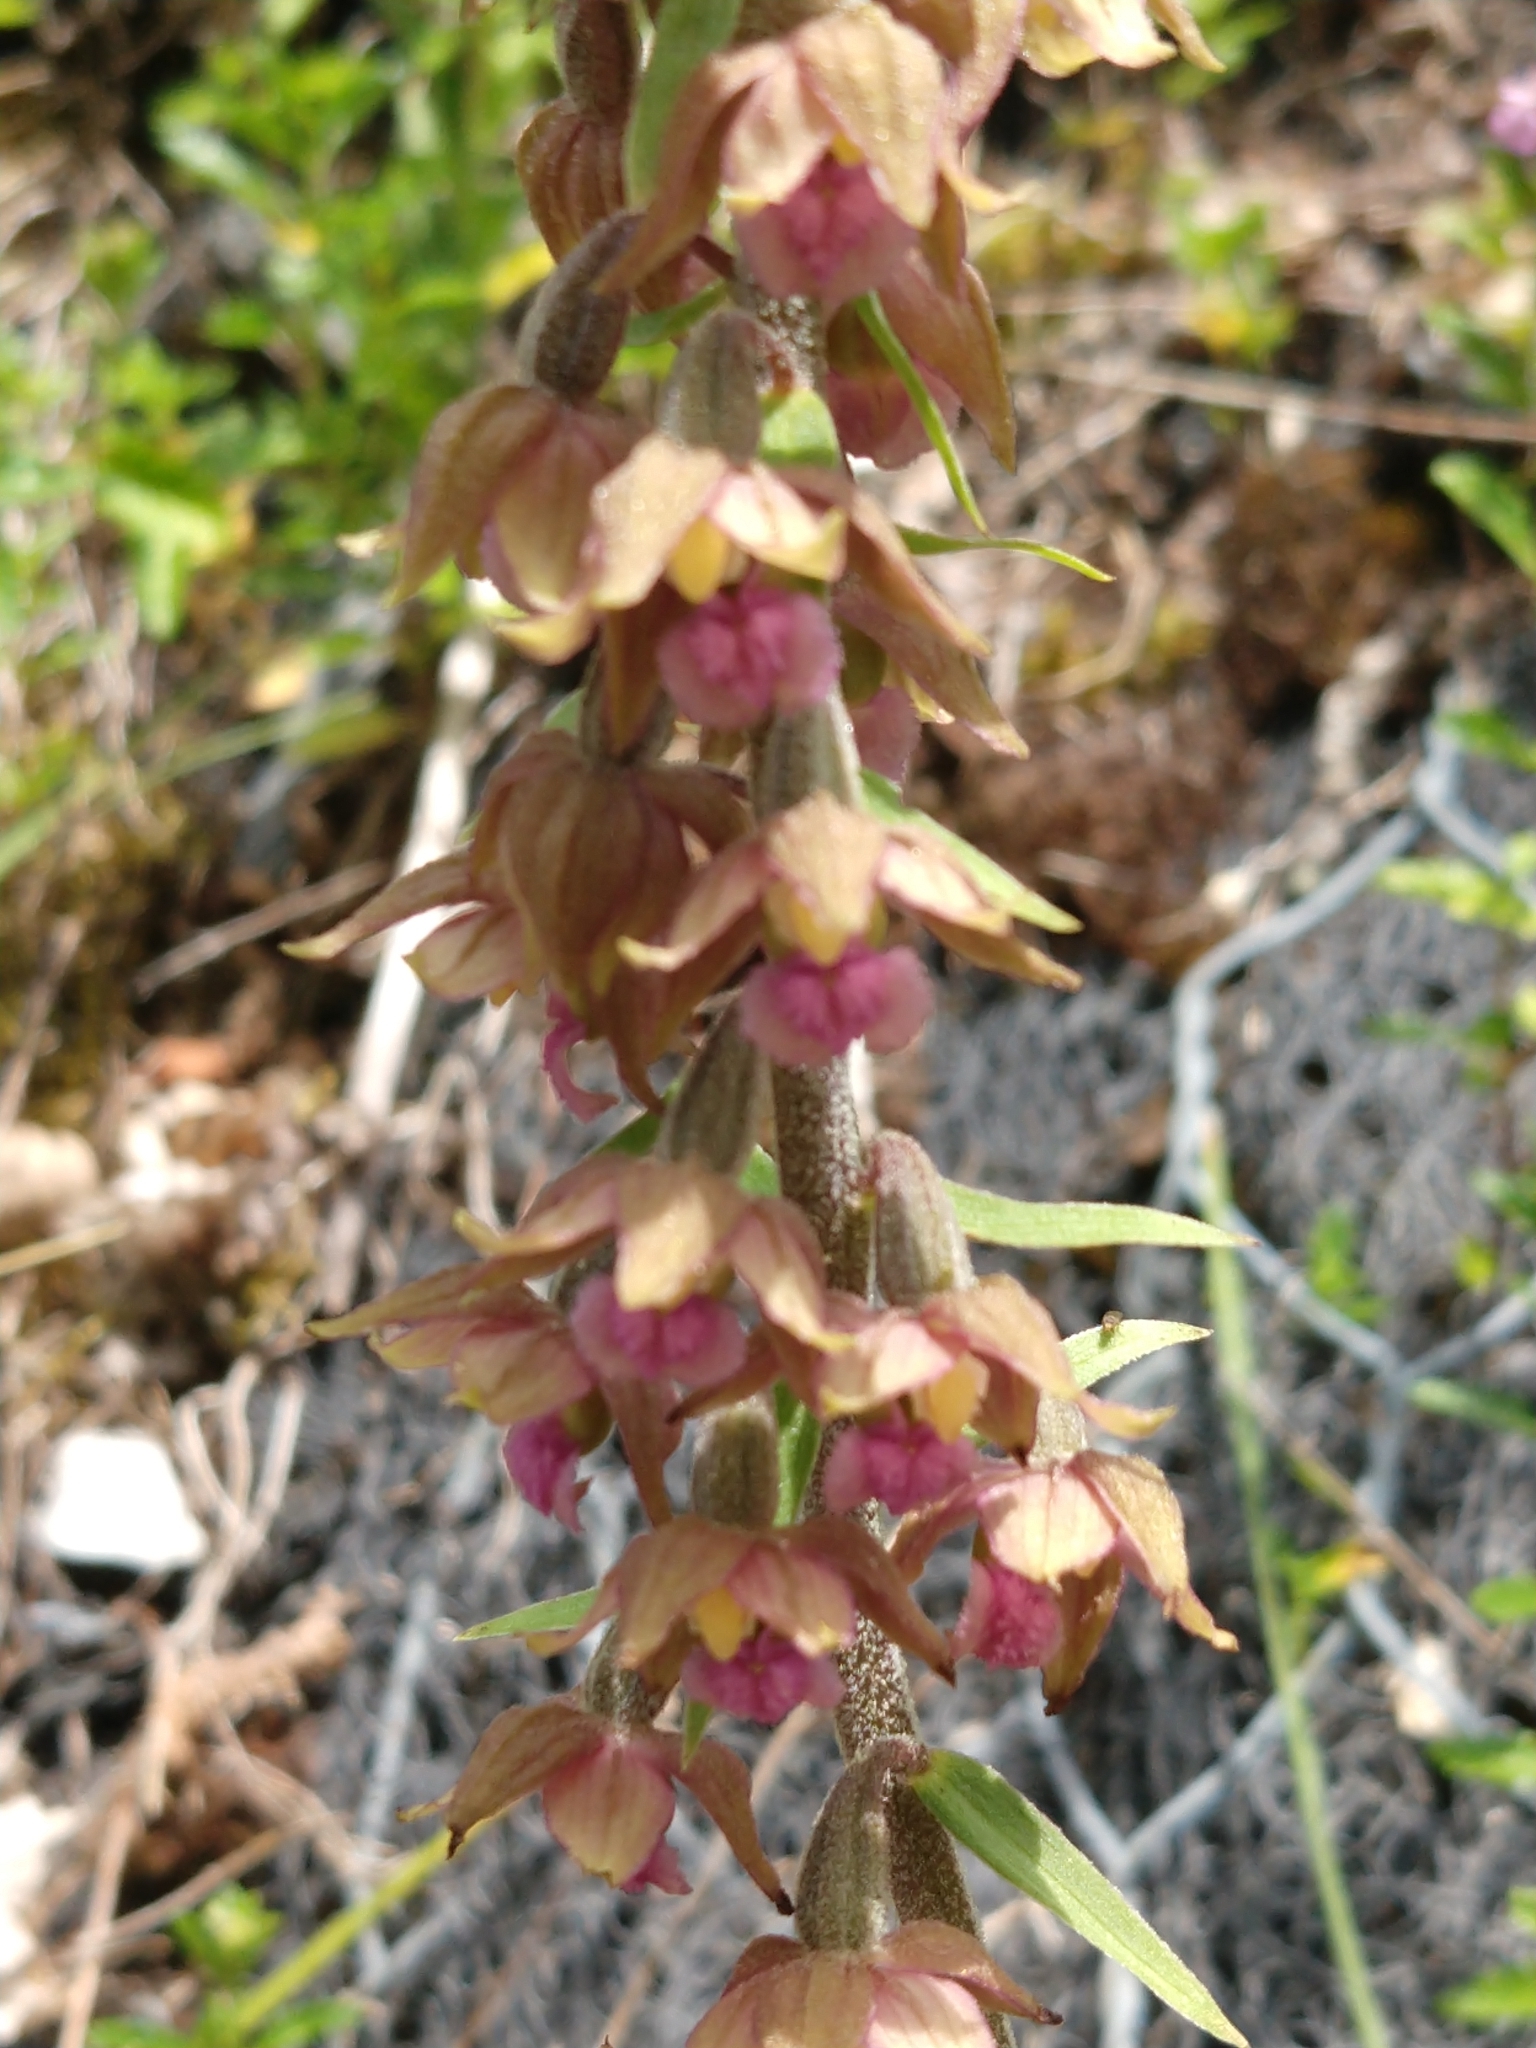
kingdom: Plantae
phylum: Tracheophyta
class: Liliopsida
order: Asparagales
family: Orchidaceae
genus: Epipactis
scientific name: Epipactis atrorubens
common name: Dark-red helleborine
